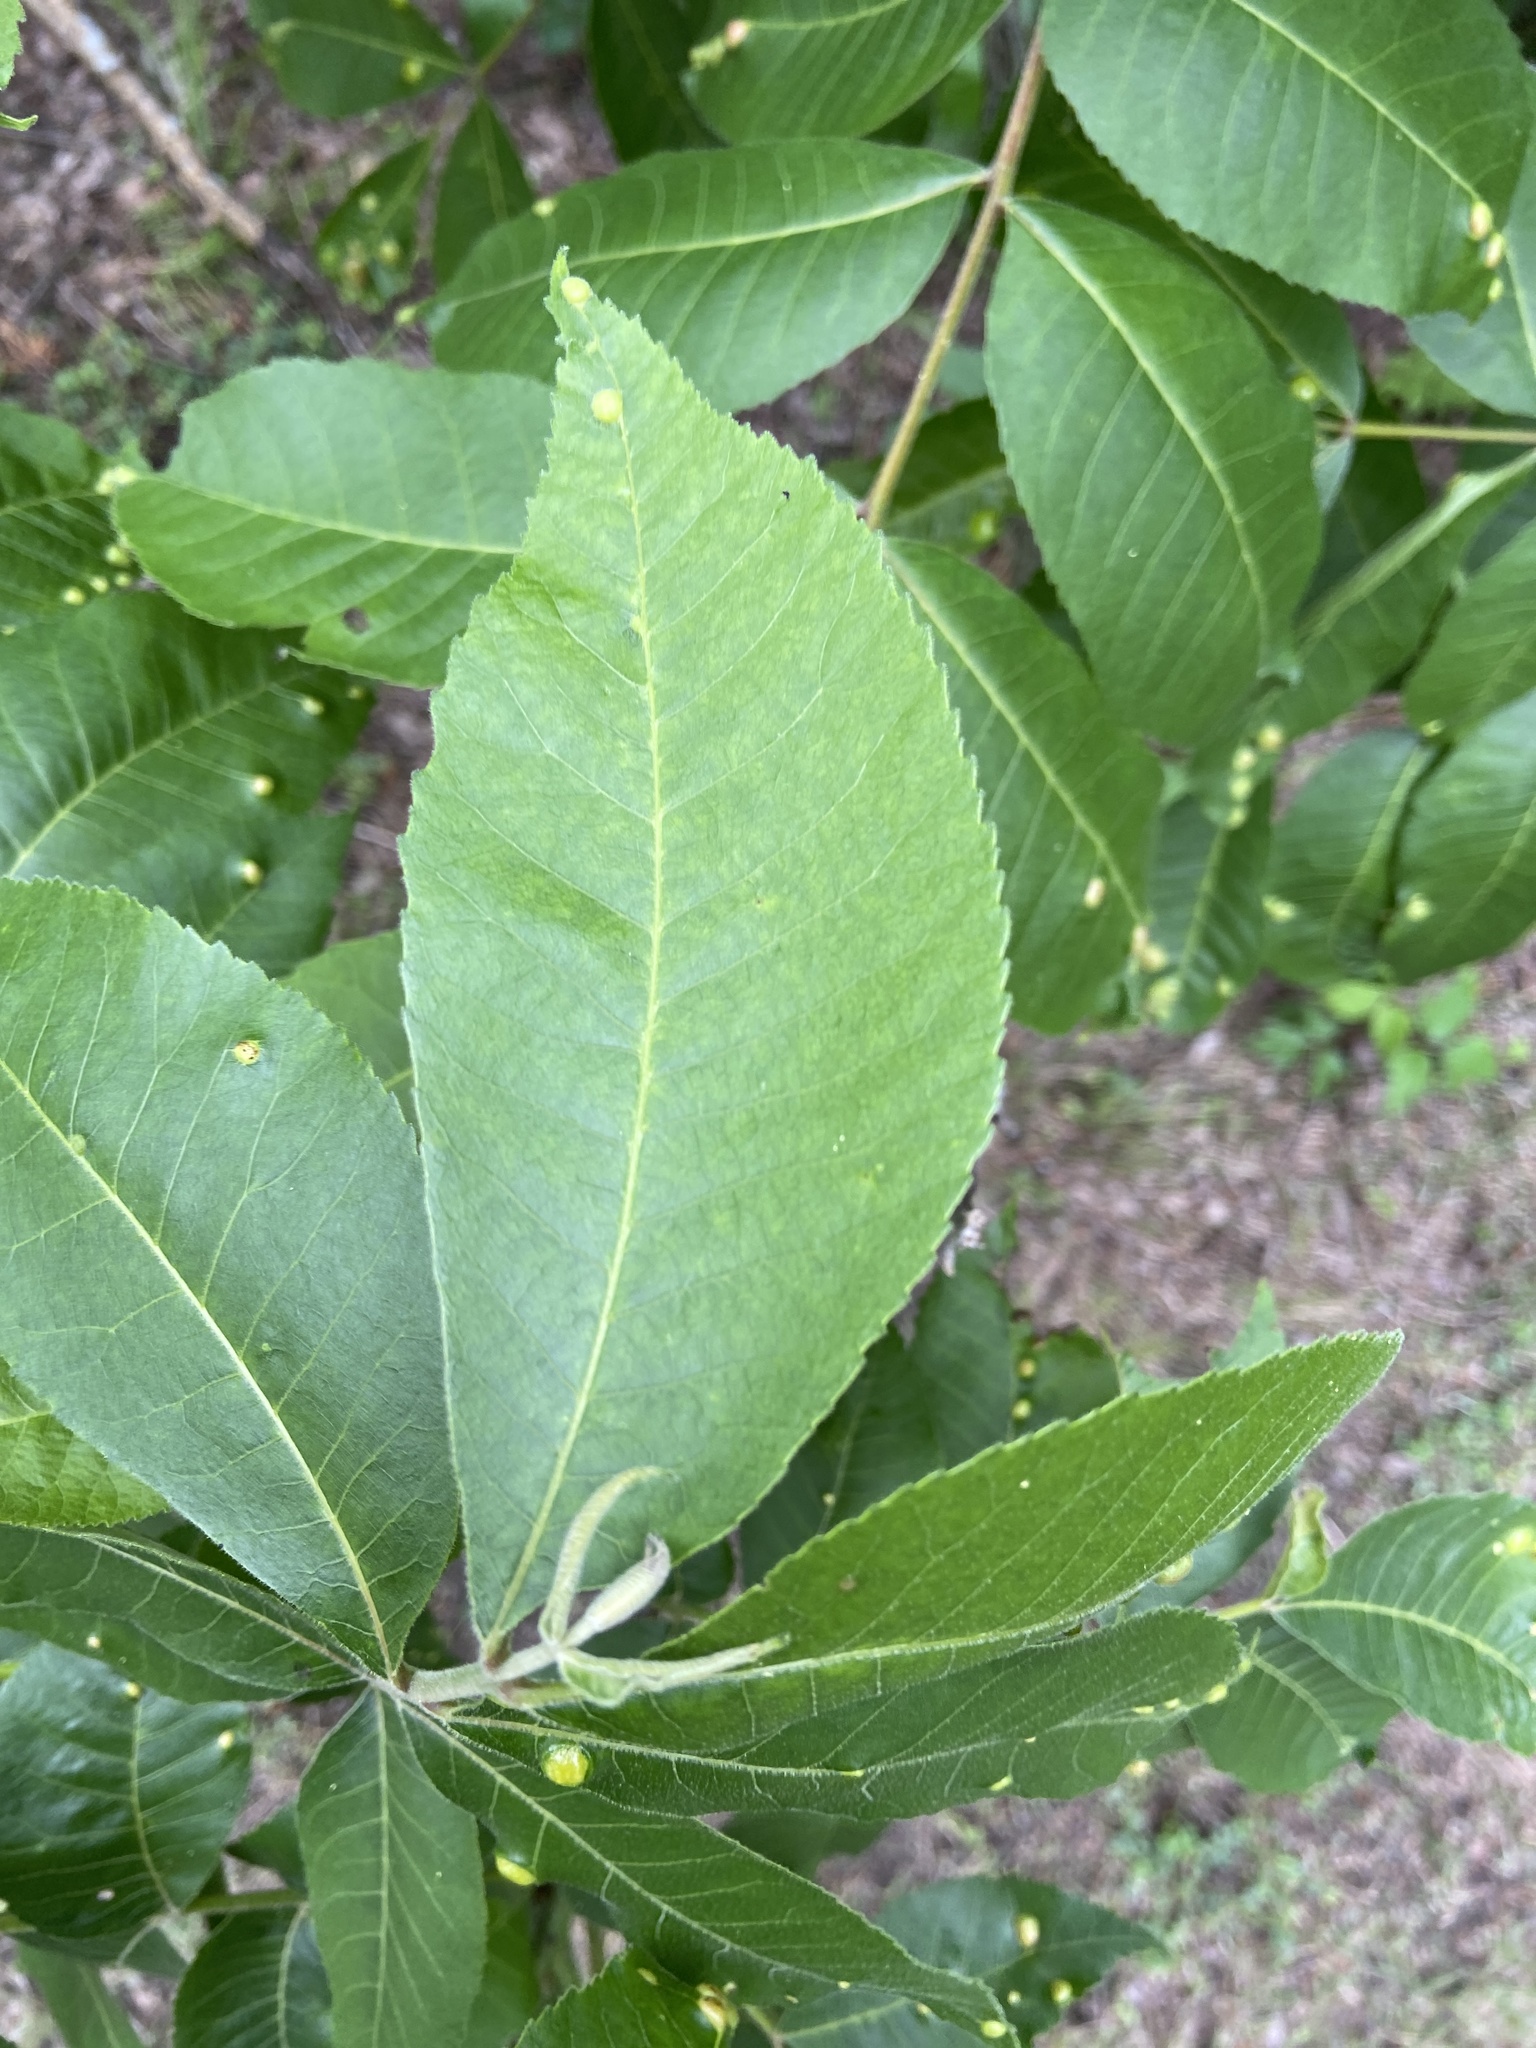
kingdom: Plantae
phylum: Tracheophyta
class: Magnoliopsida
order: Fagales
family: Juglandaceae
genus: Carya
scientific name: Carya illinoinensis
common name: Pecan
